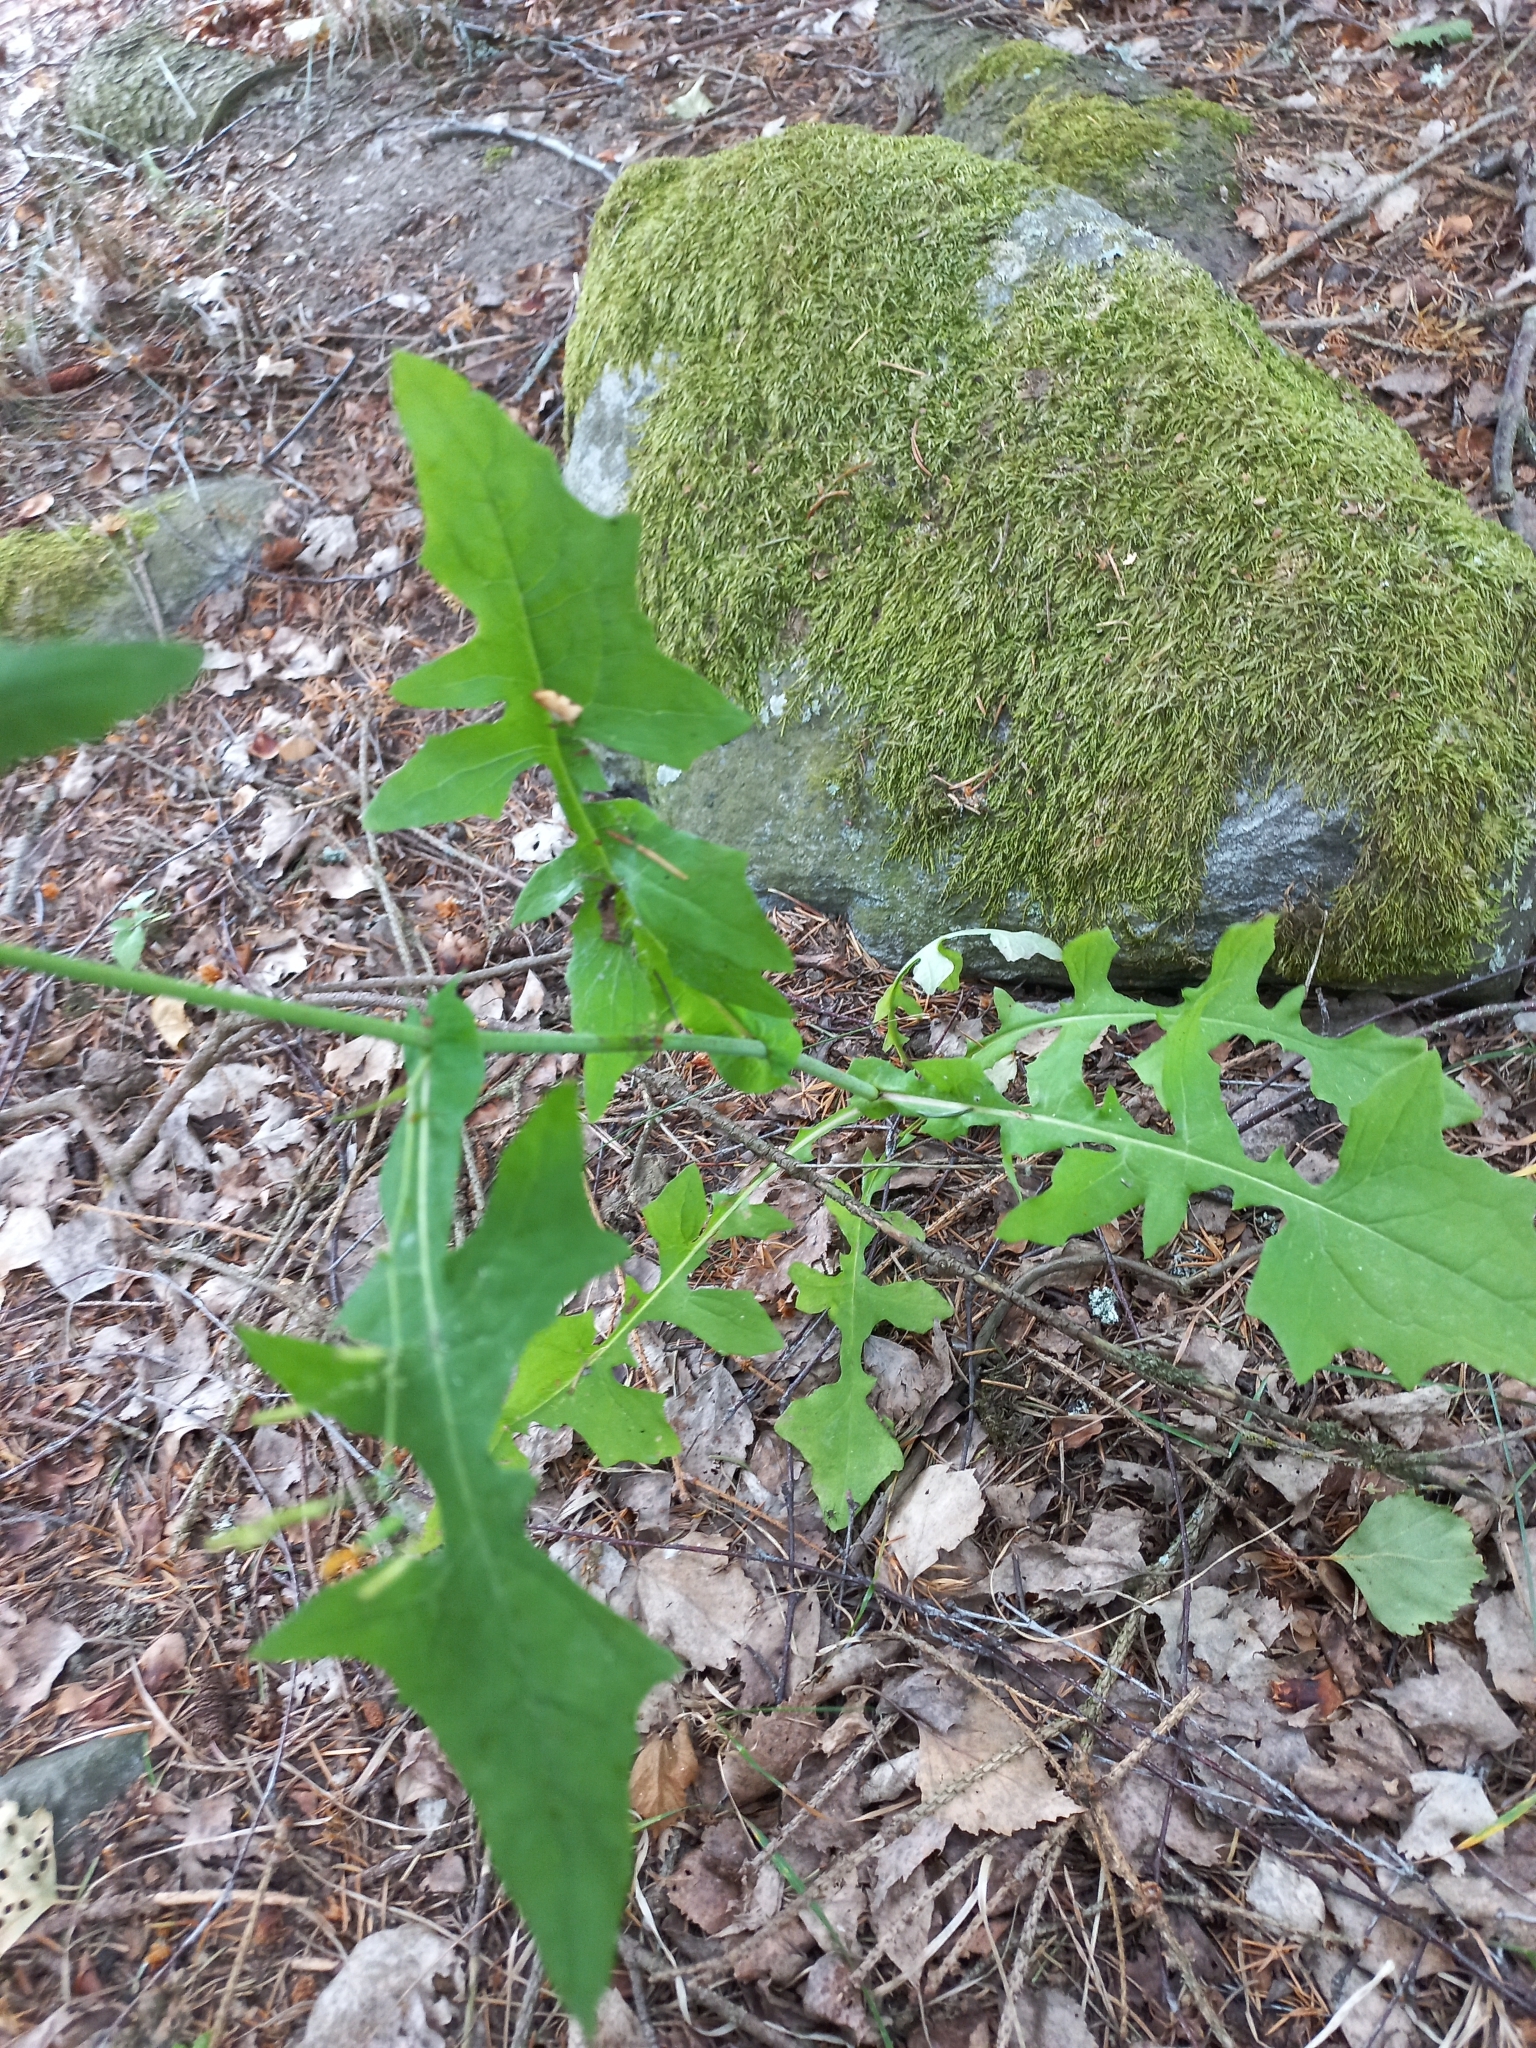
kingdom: Plantae
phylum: Tracheophyta
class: Magnoliopsida
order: Asterales
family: Asteraceae
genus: Mycelis
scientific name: Mycelis muralis
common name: Wall lettuce
